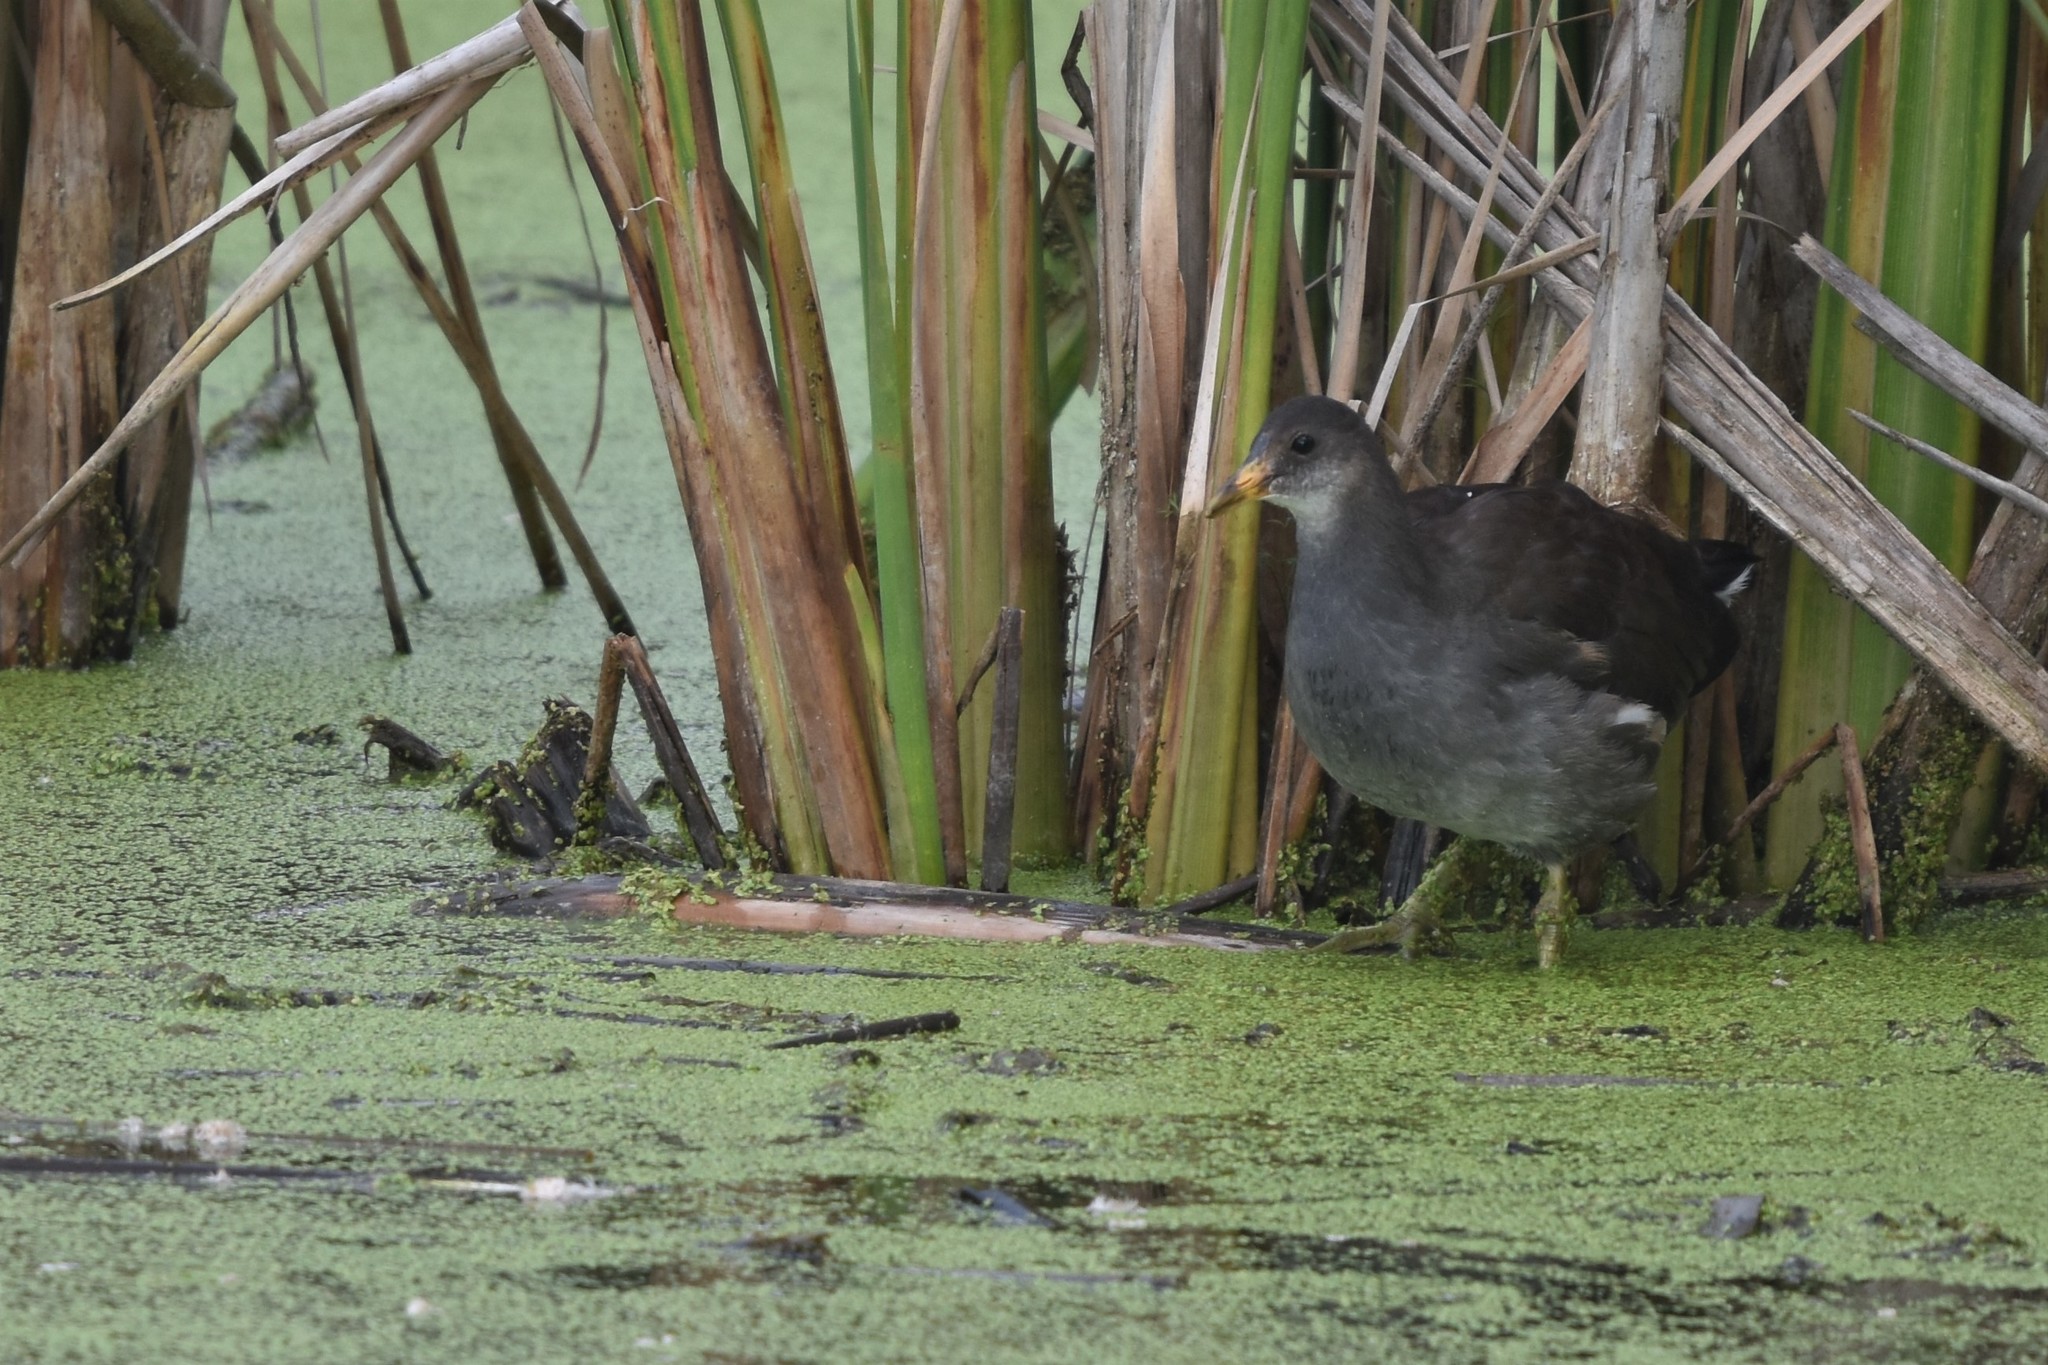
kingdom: Animalia
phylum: Chordata
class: Aves
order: Gruiformes
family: Rallidae
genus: Gallinula
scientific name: Gallinula chloropus
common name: Common moorhen
